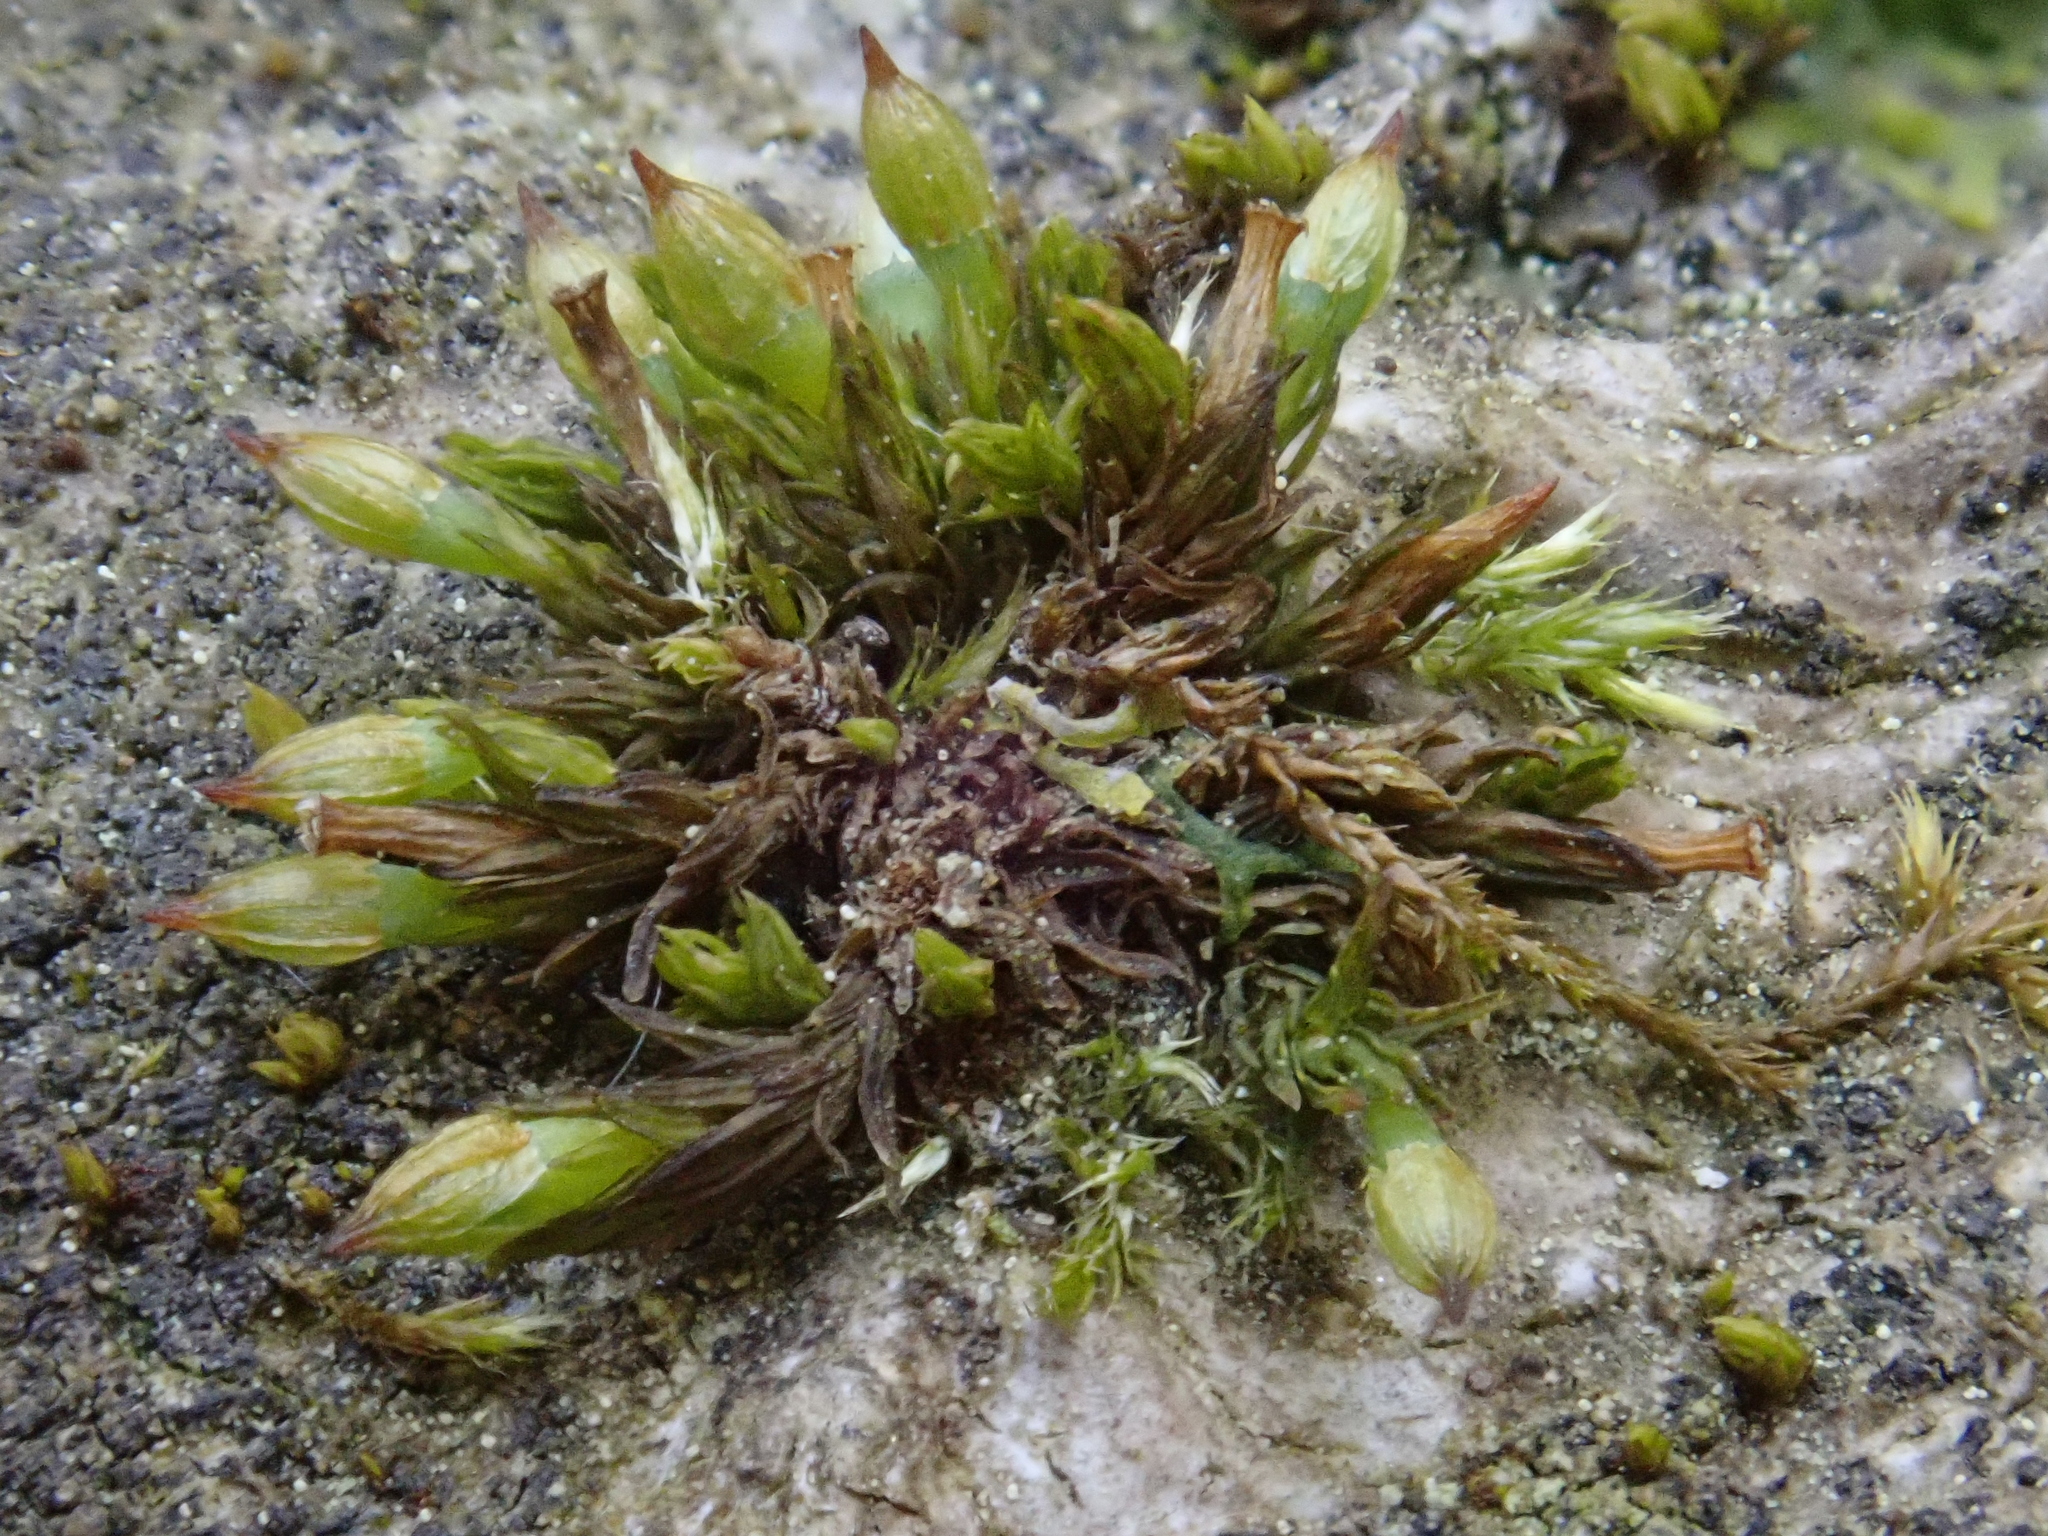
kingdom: Plantae
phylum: Bryophyta
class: Bryopsida
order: Orthotrichales
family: Orthotrichaceae
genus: Orthotrichum
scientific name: Orthotrichum pumilum
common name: Dwarf bristle moss
